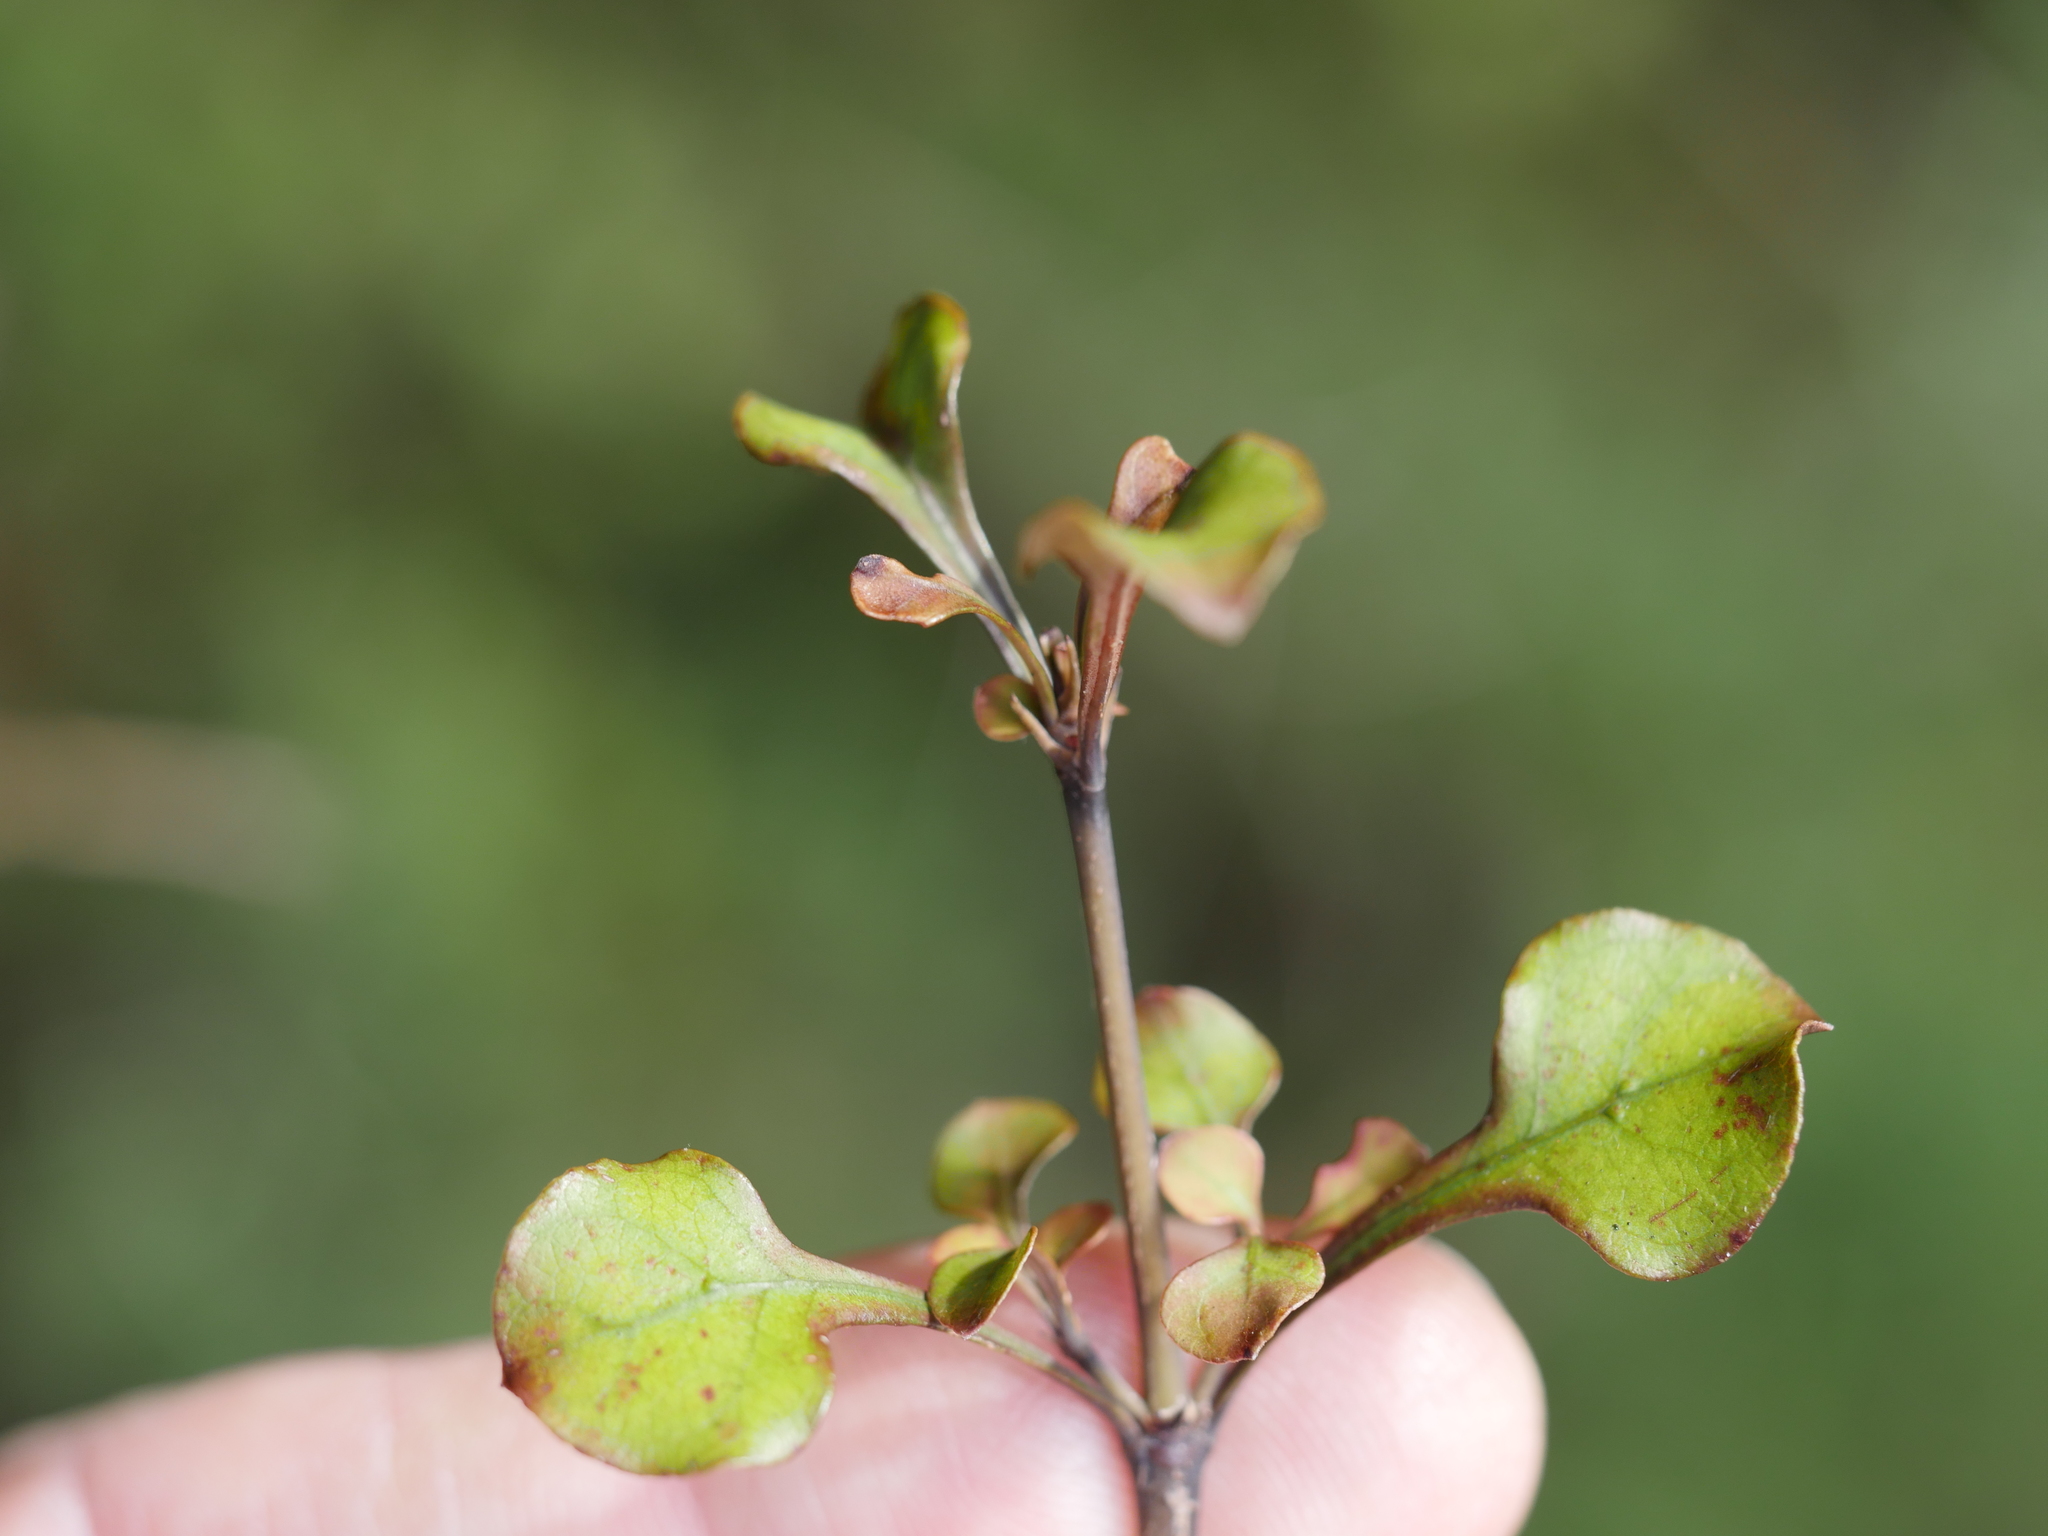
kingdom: Plantae
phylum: Tracheophyta
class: Magnoliopsida
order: Gentianales
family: Rubiaceae
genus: Coprosma
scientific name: Coprosma spathulata
